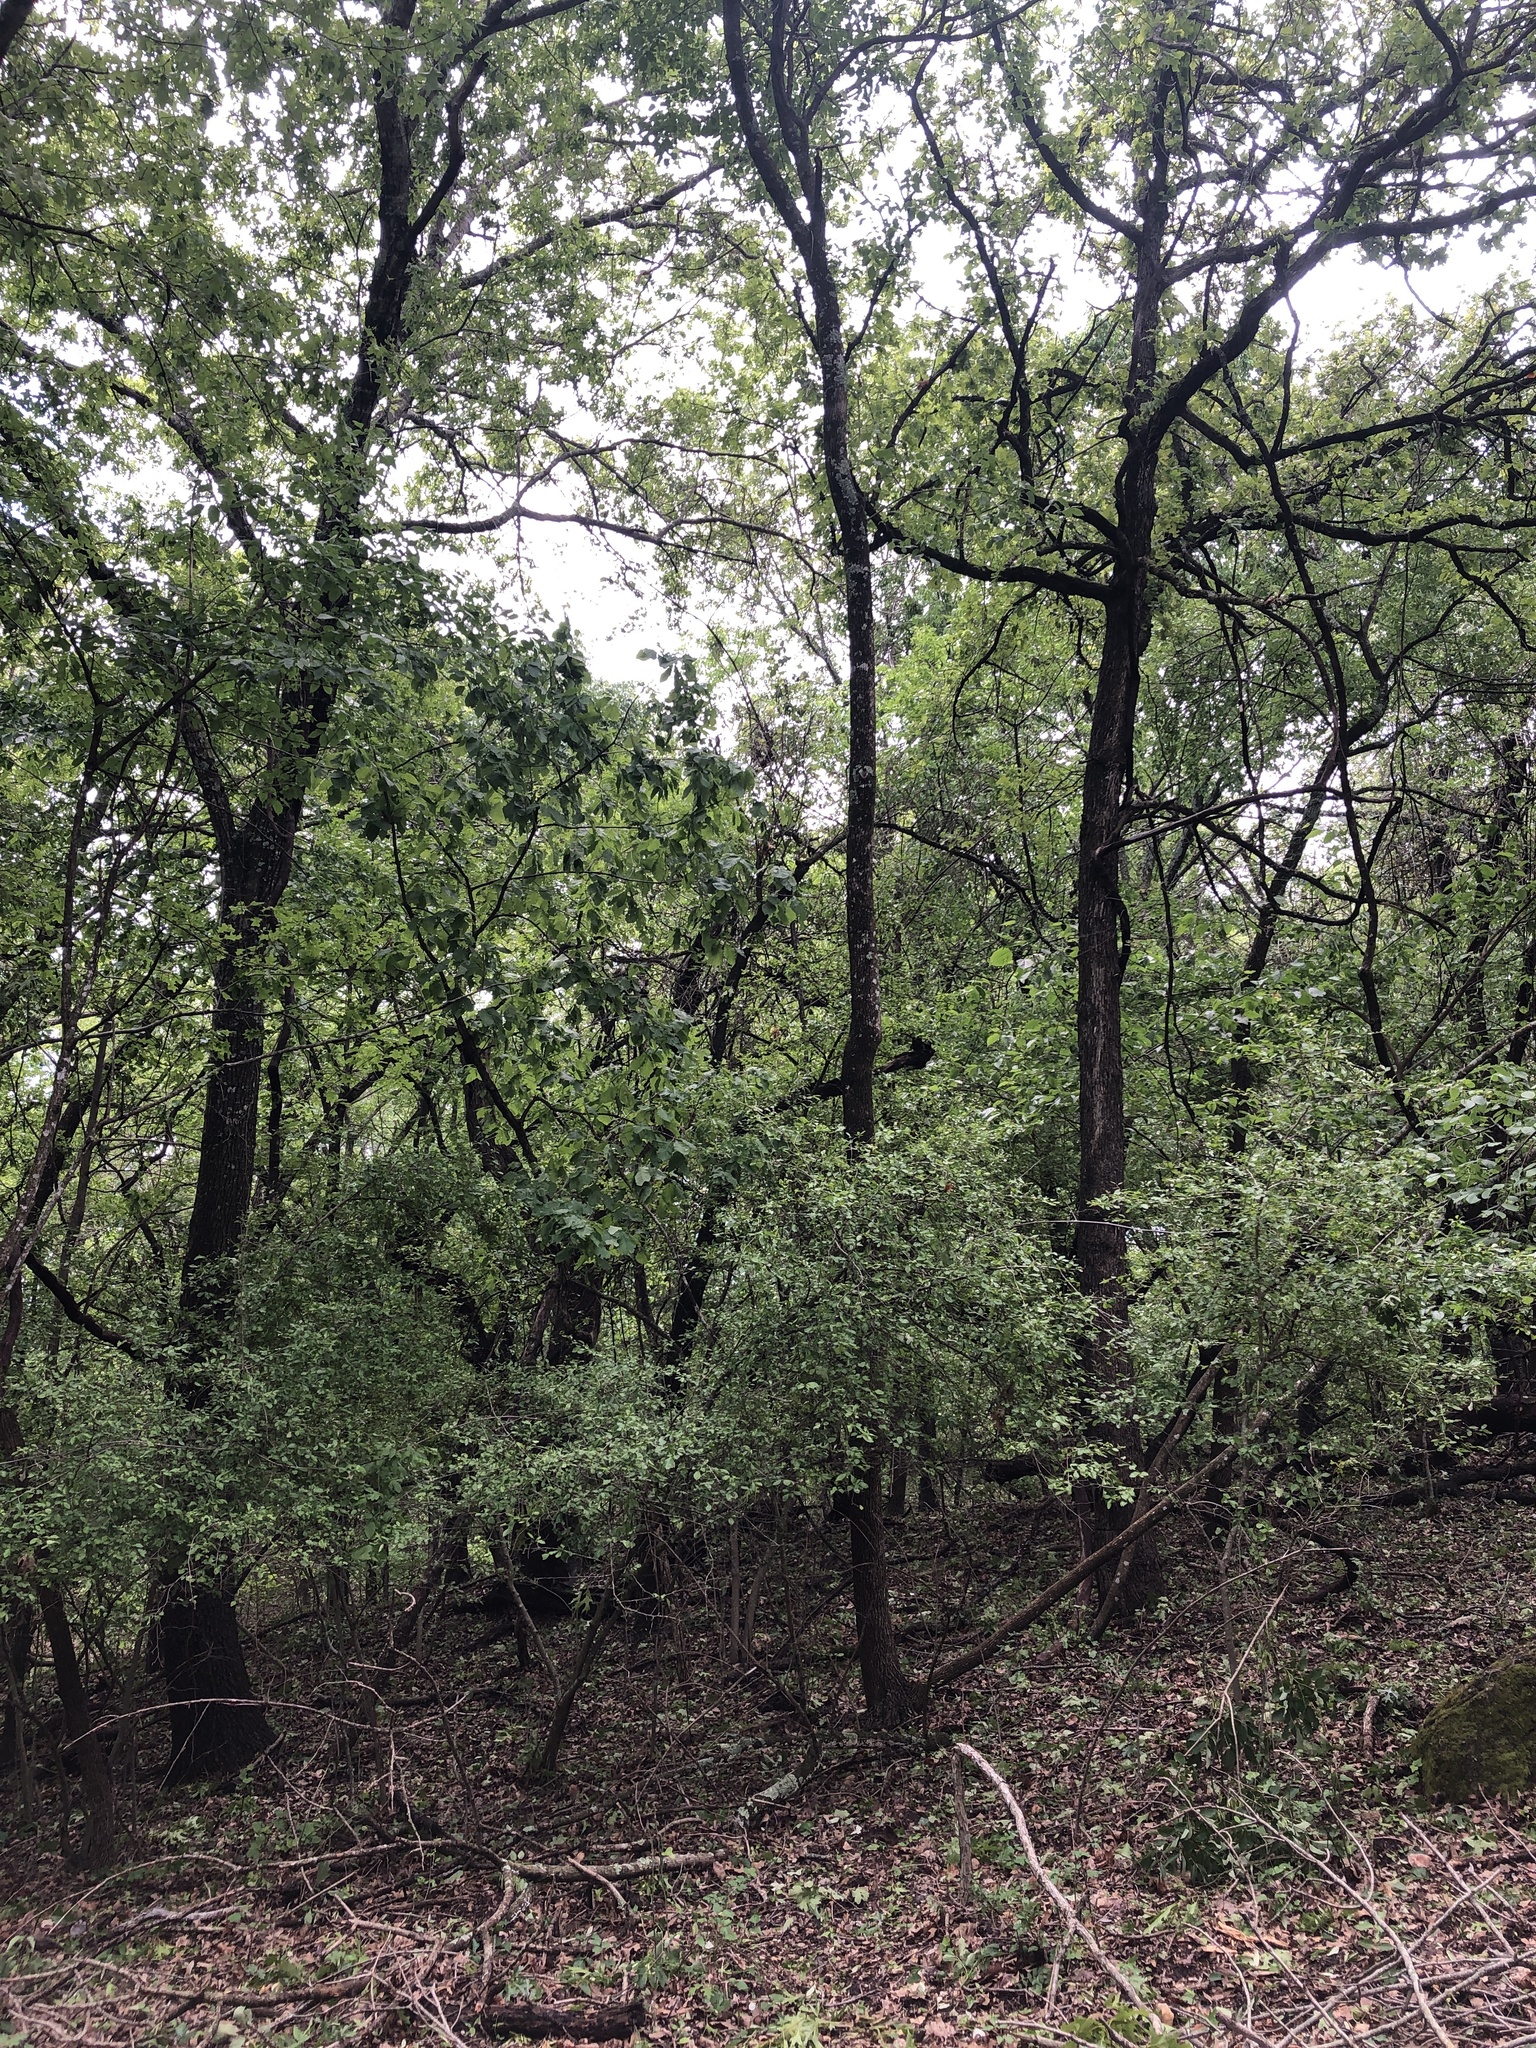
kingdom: Animalia
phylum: Chordata
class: Aves
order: Cuculiformes
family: Cuculidae
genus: Coccyzus
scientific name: Coccyzus americanus
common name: Yellow-billed cuckoo
